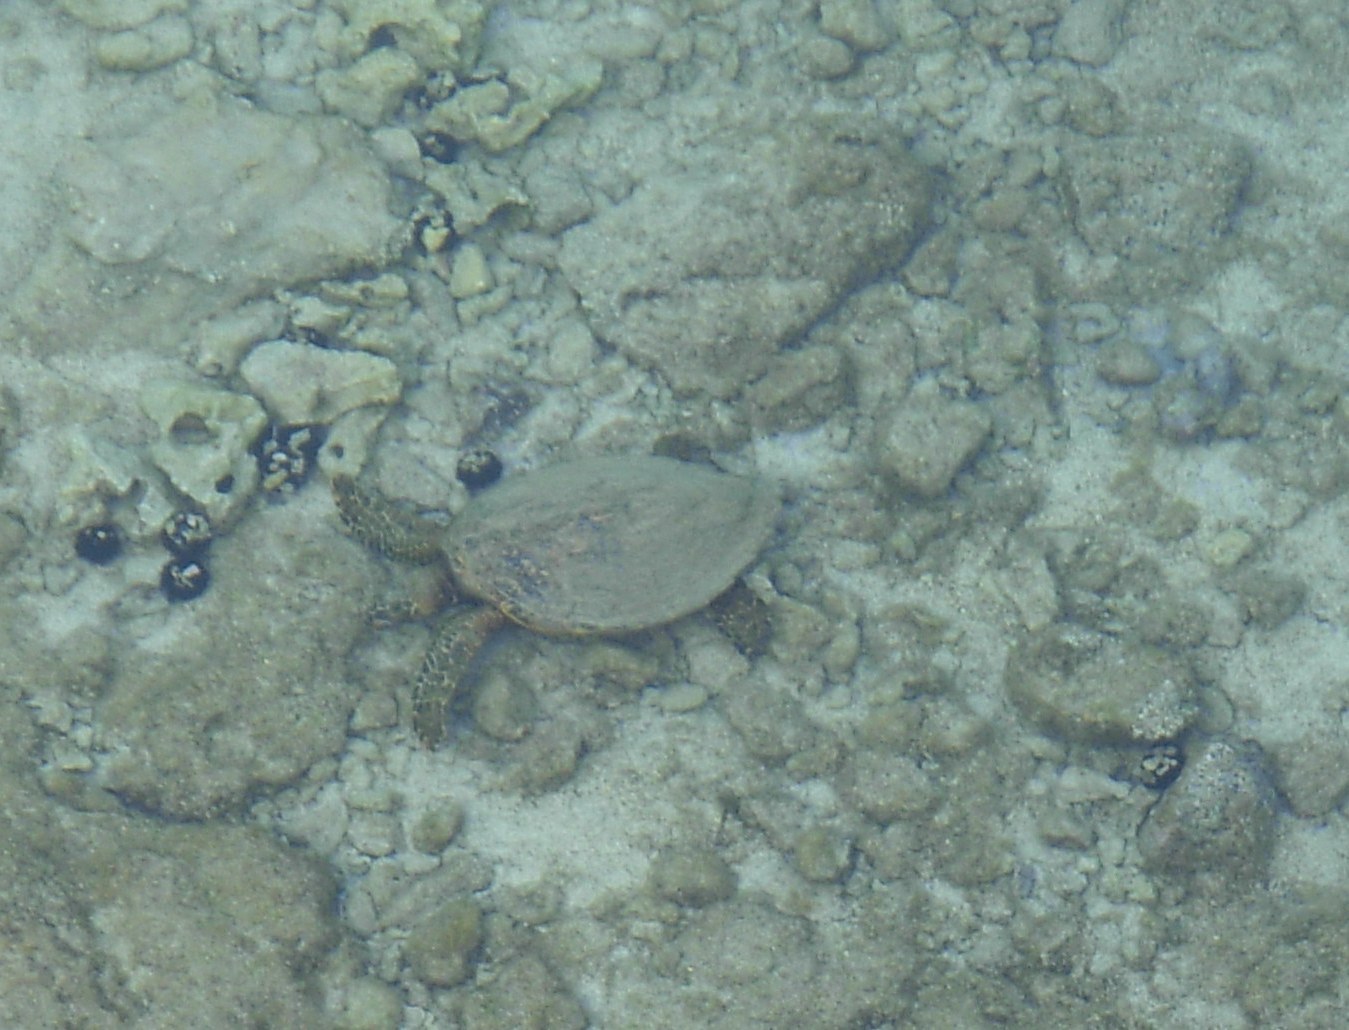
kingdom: Animalia
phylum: Chordata
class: Testudines
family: Cheloniidae
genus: Chelonia
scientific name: Chelonia mydas
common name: Green turtle
